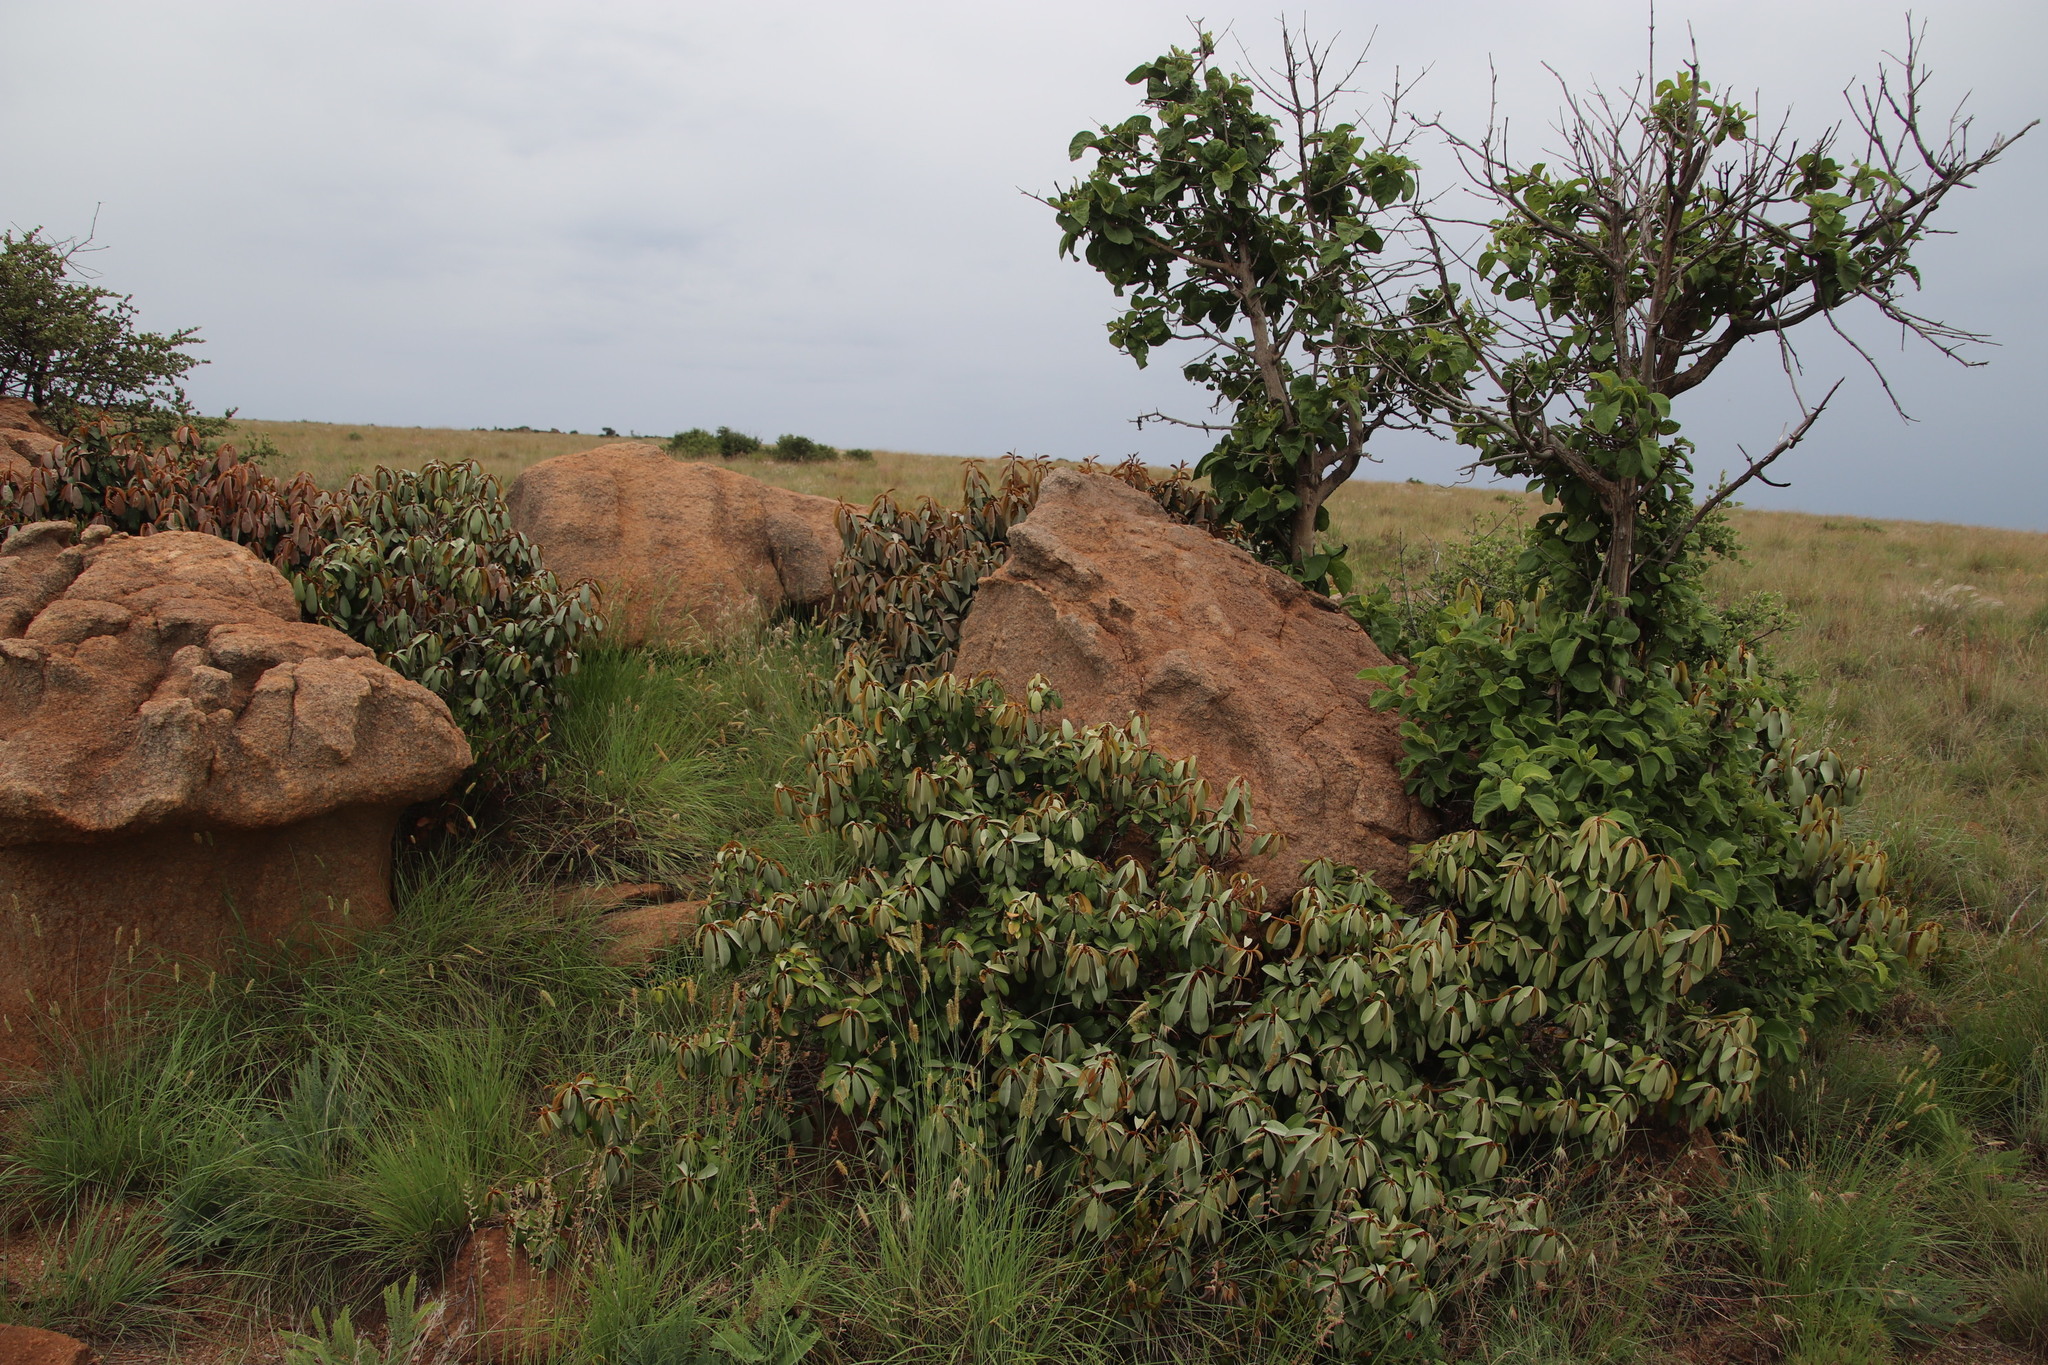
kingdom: Plantae
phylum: Tracheophyta
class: Magnoliopsida
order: Ericales
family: Sapotaceae
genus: Englerophytum
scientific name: Englerophytum magalismontanum
